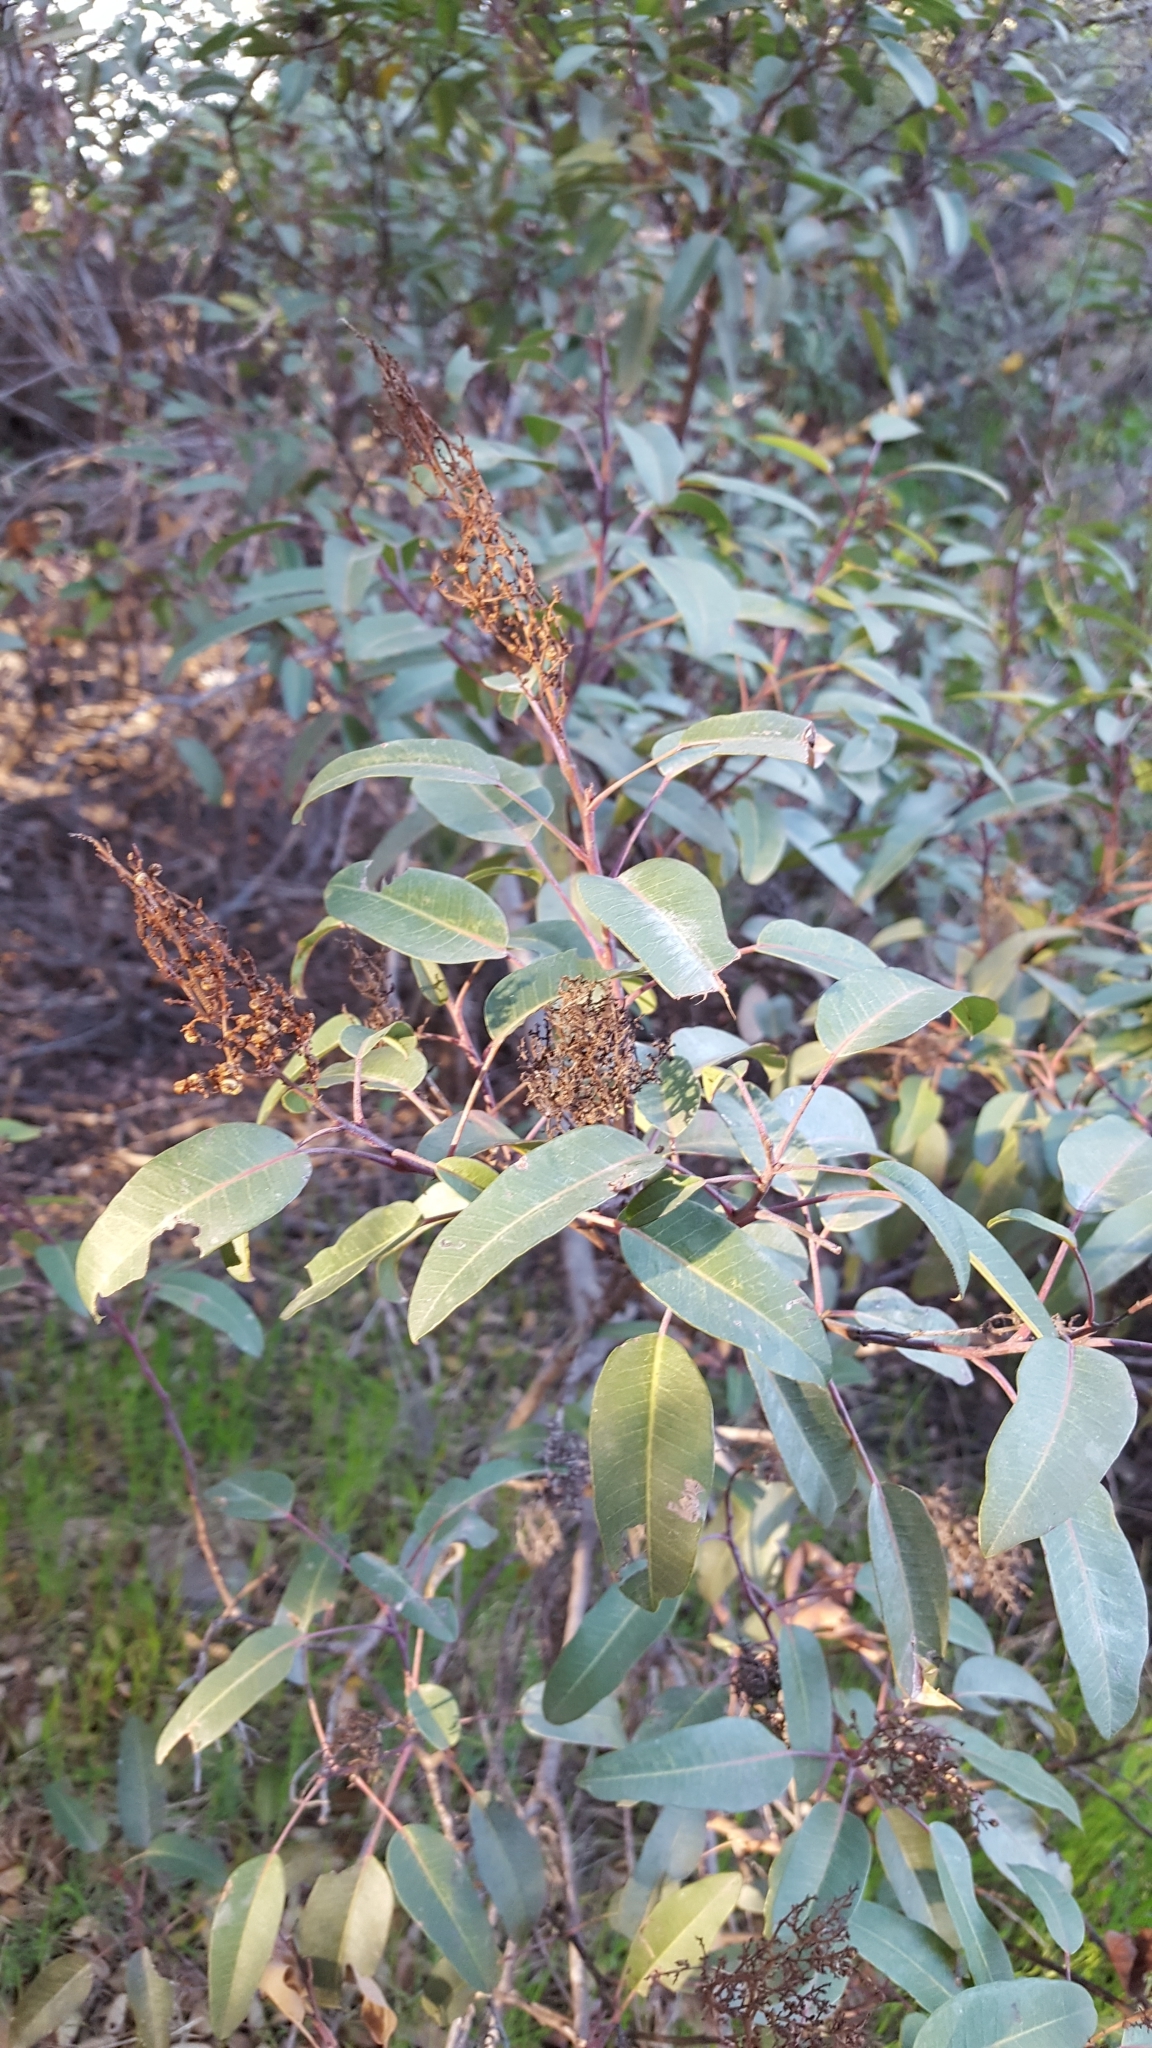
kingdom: Plantae
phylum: Tracheophyta
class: Magnoliopsida
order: Sapindales
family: Anacardiaceae
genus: Malosma
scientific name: Malosma laurina
